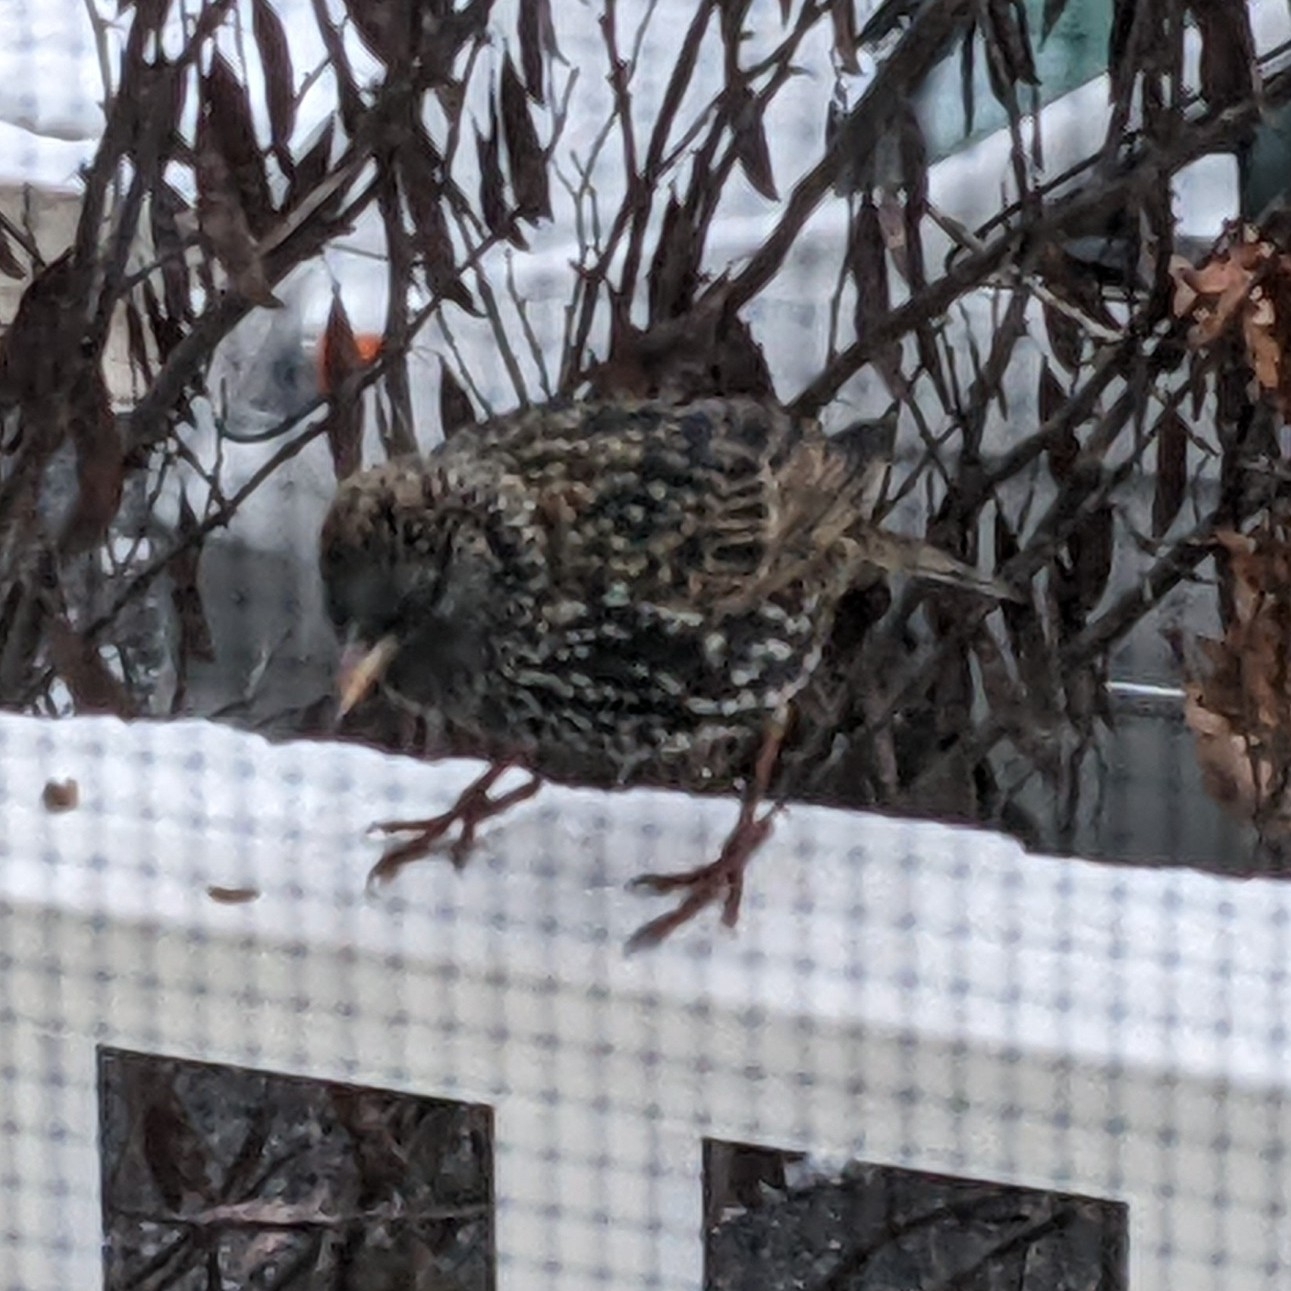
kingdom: Animalia
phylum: Chordata
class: Aves
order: Passeriformes
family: Sturnidae
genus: Sturnus
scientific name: Sturnus vulgaris
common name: Common starling
